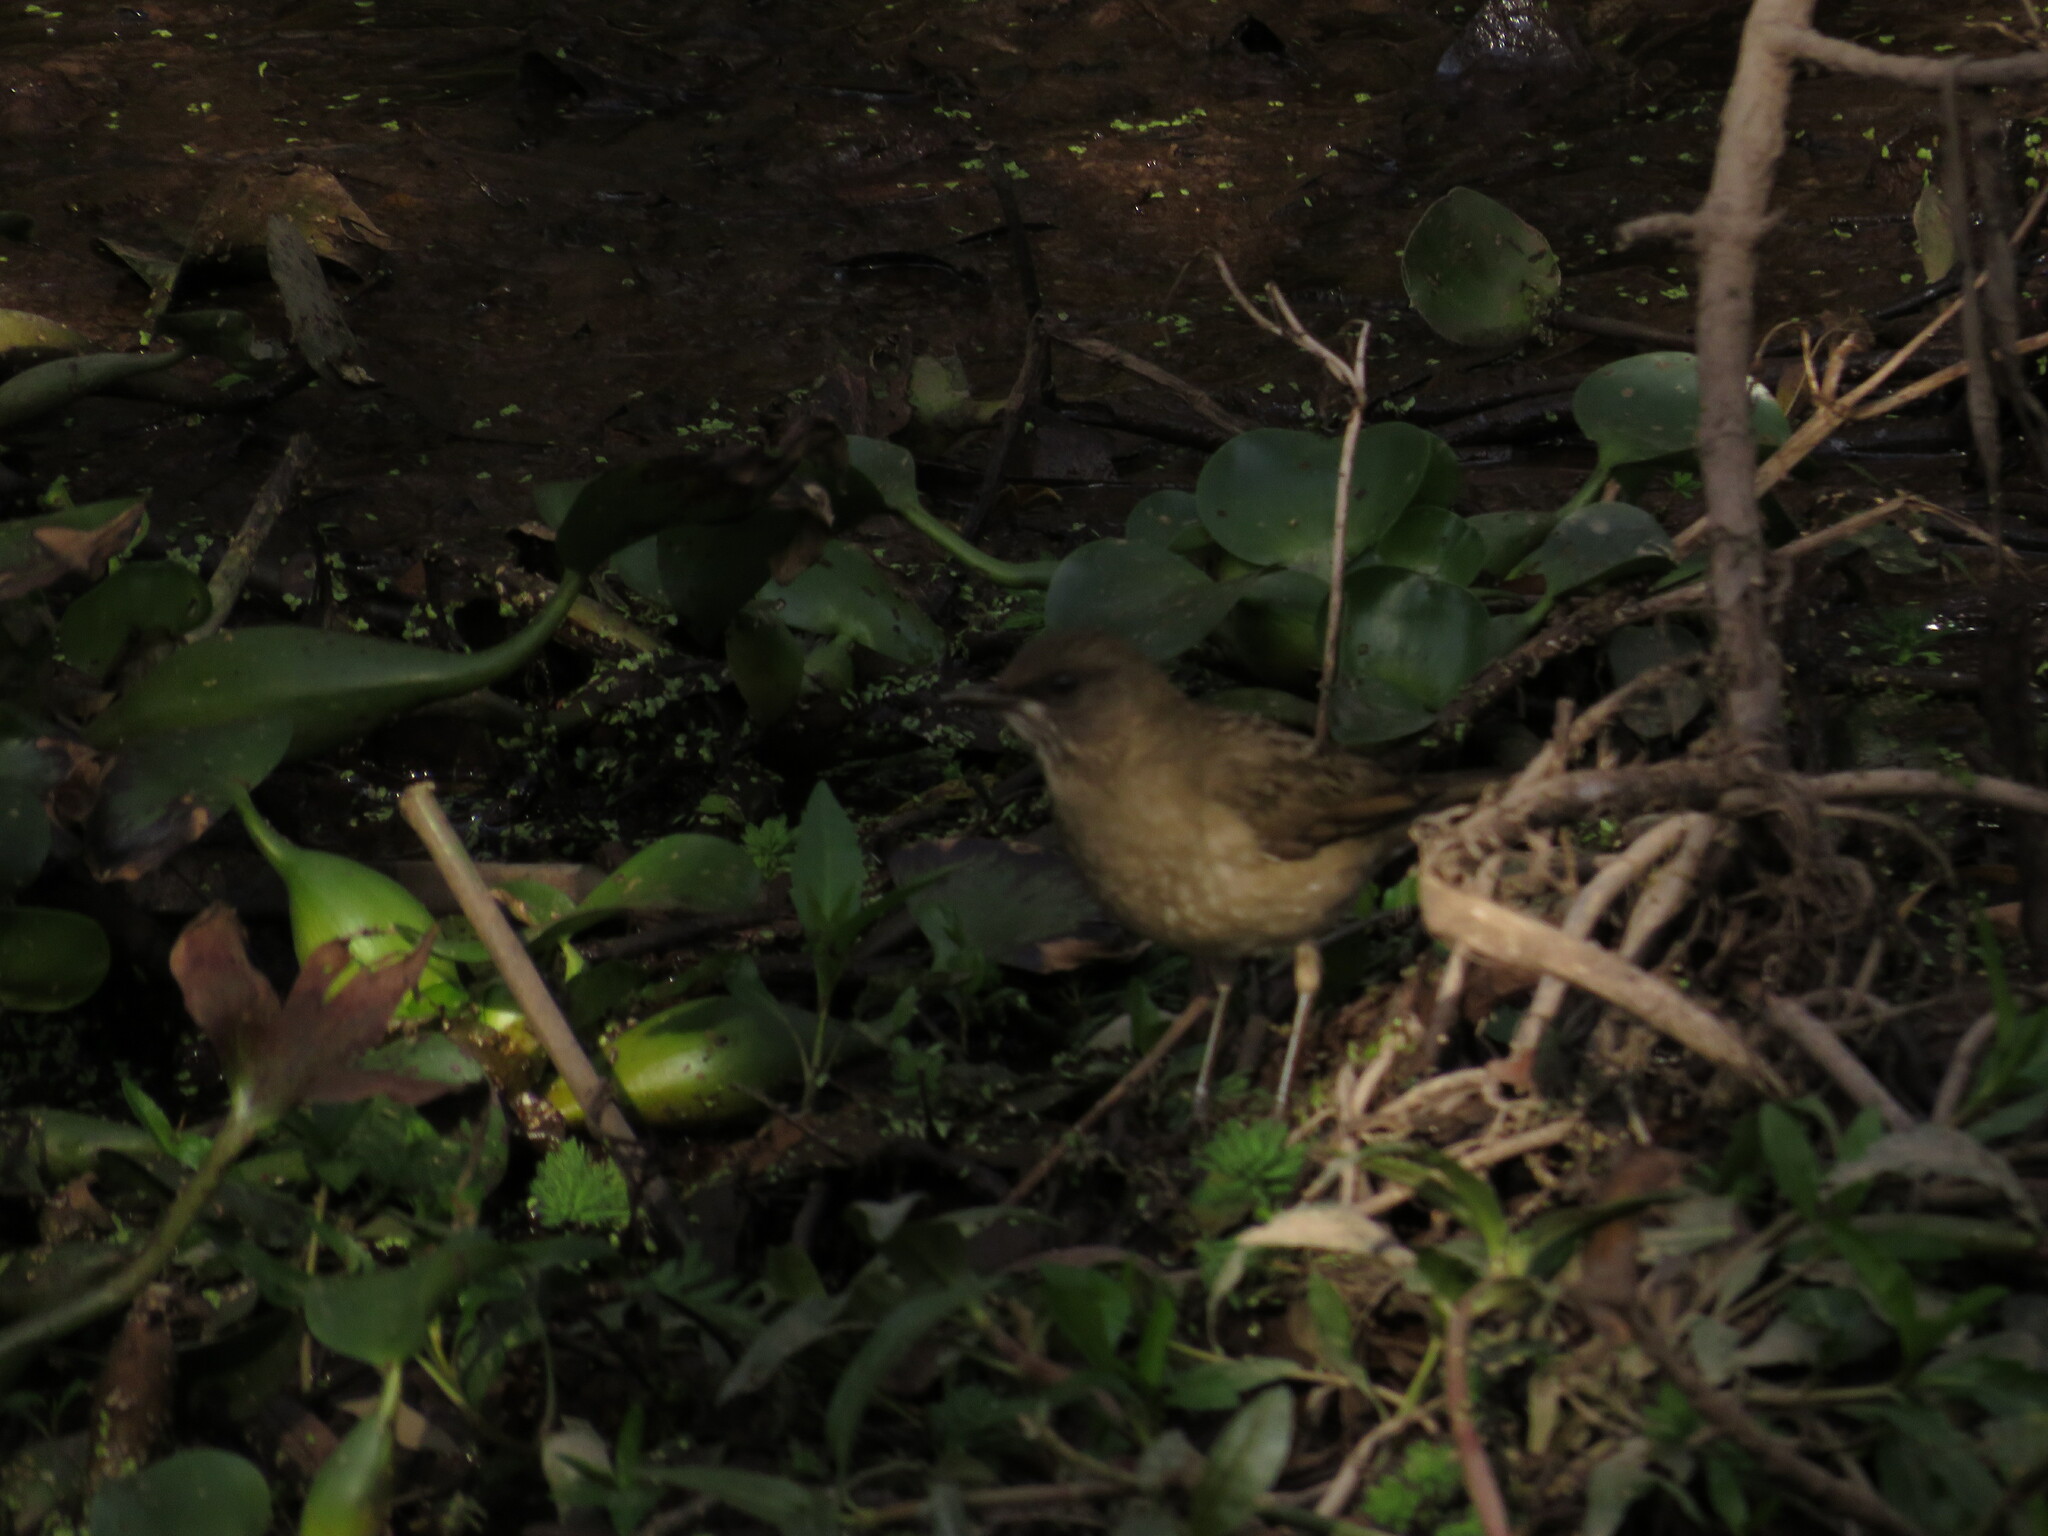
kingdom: Animalia
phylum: Chordata
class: Aves
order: Passeriformes
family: Turdidae
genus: Turdus
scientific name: Turdus amaurochalinus
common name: Creamy-bellied thrush
